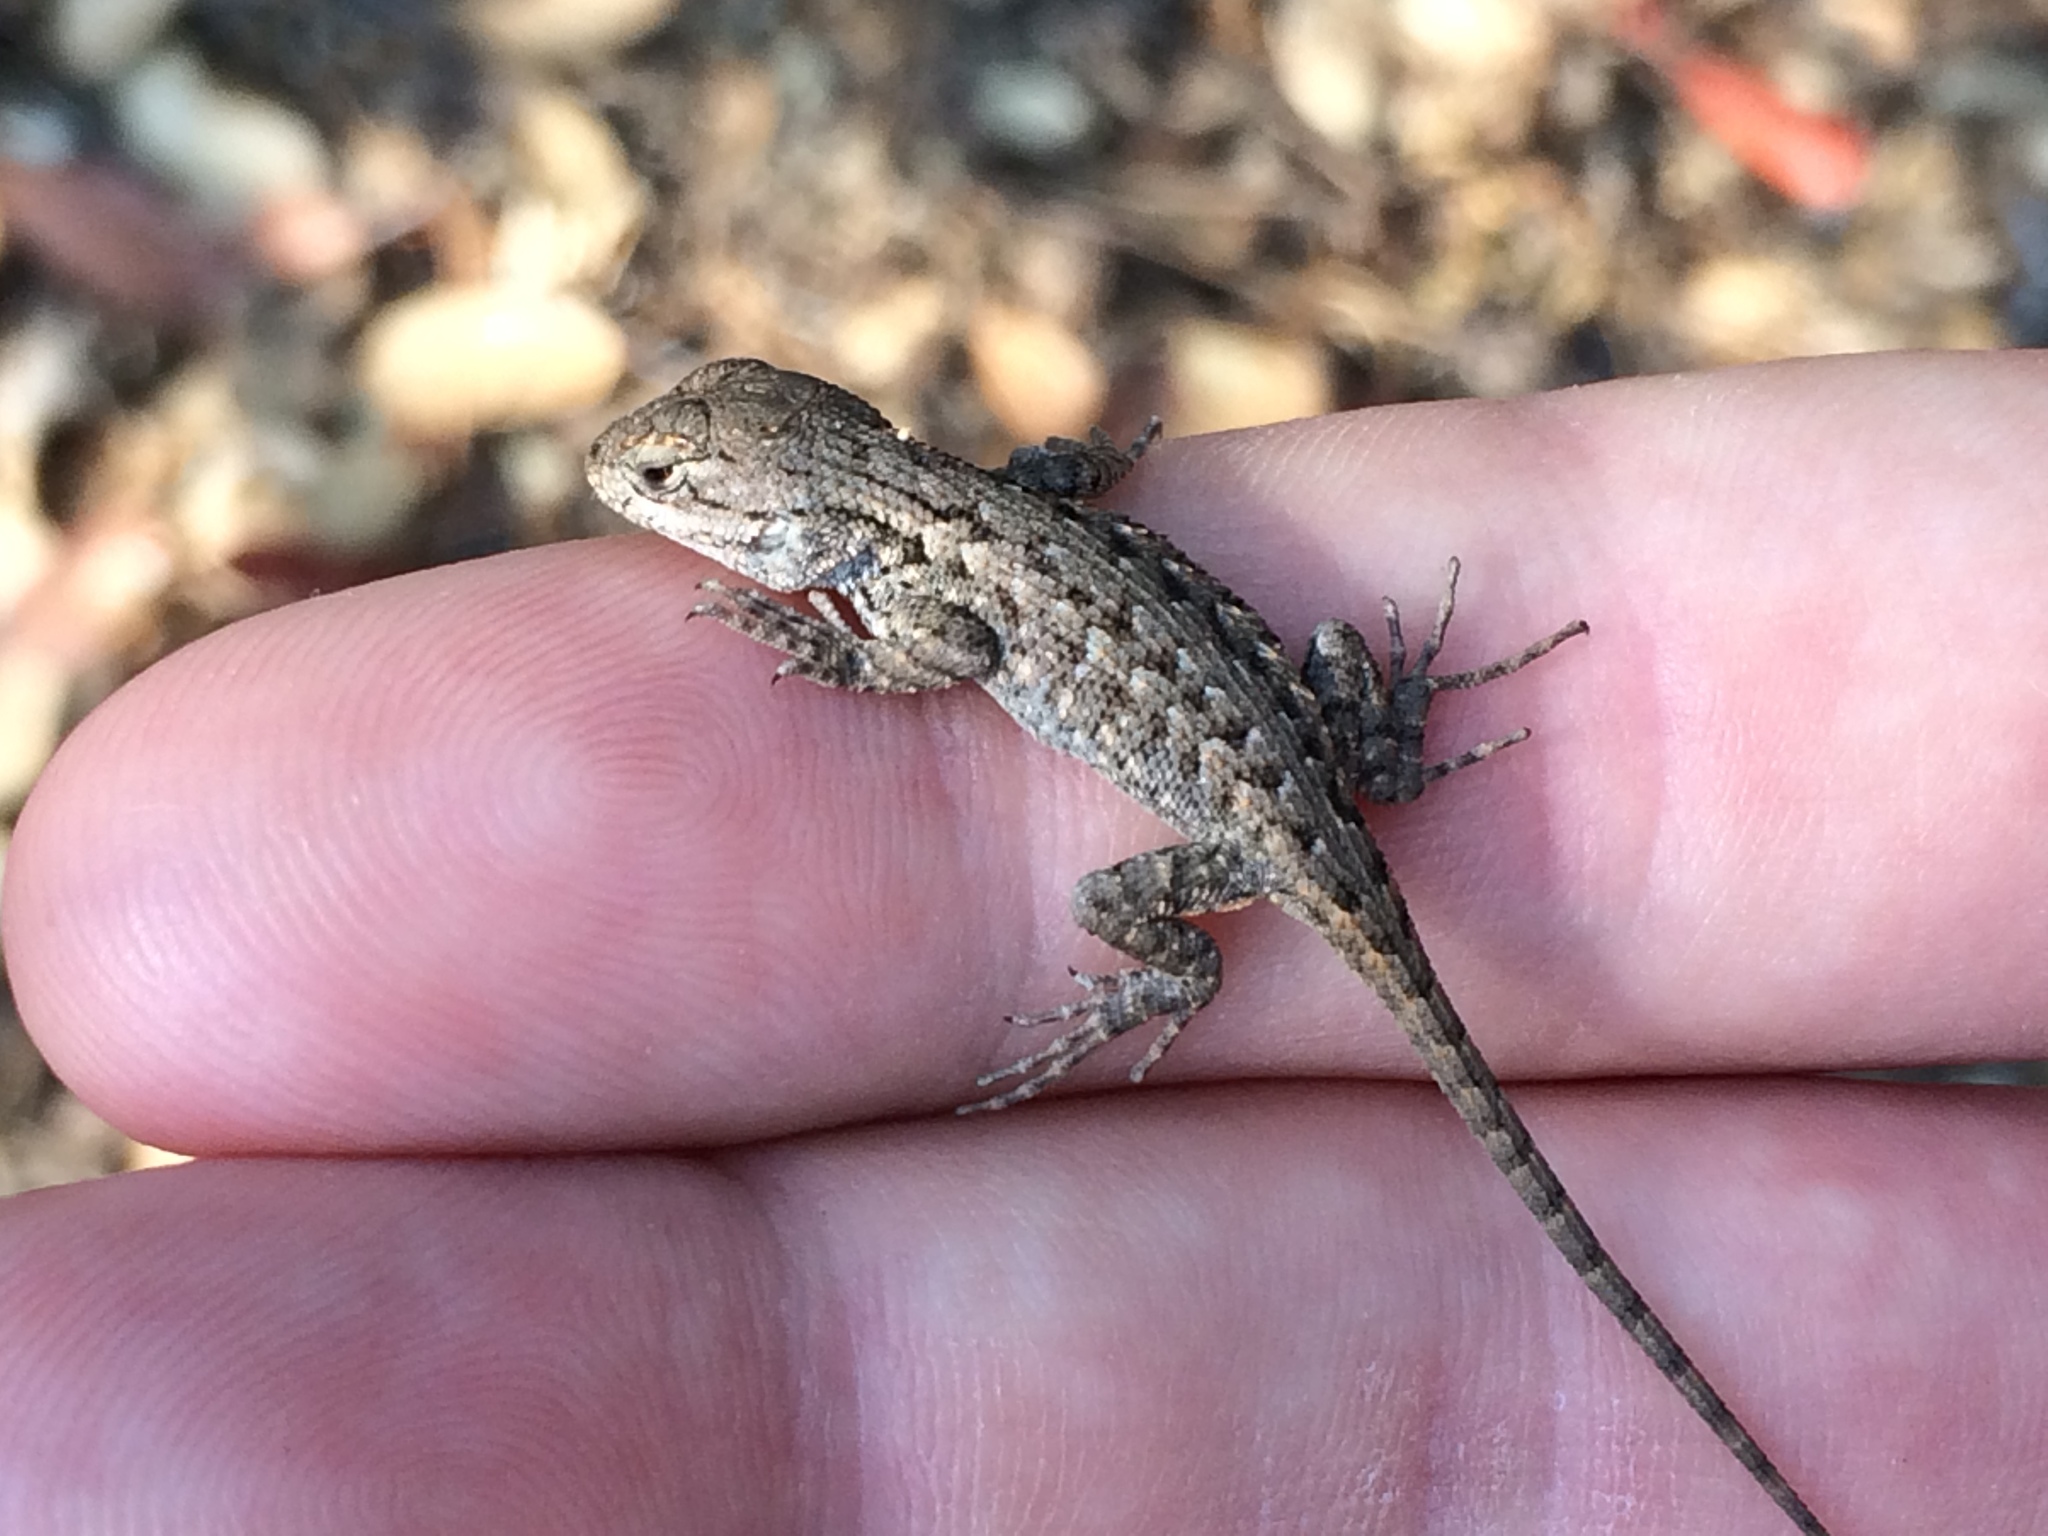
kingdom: Animalia
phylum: Chordata
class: Squamata
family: Phrynosomatidae
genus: Sceloporus
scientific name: Sceloporus occidentalis
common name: Western fence lizard
